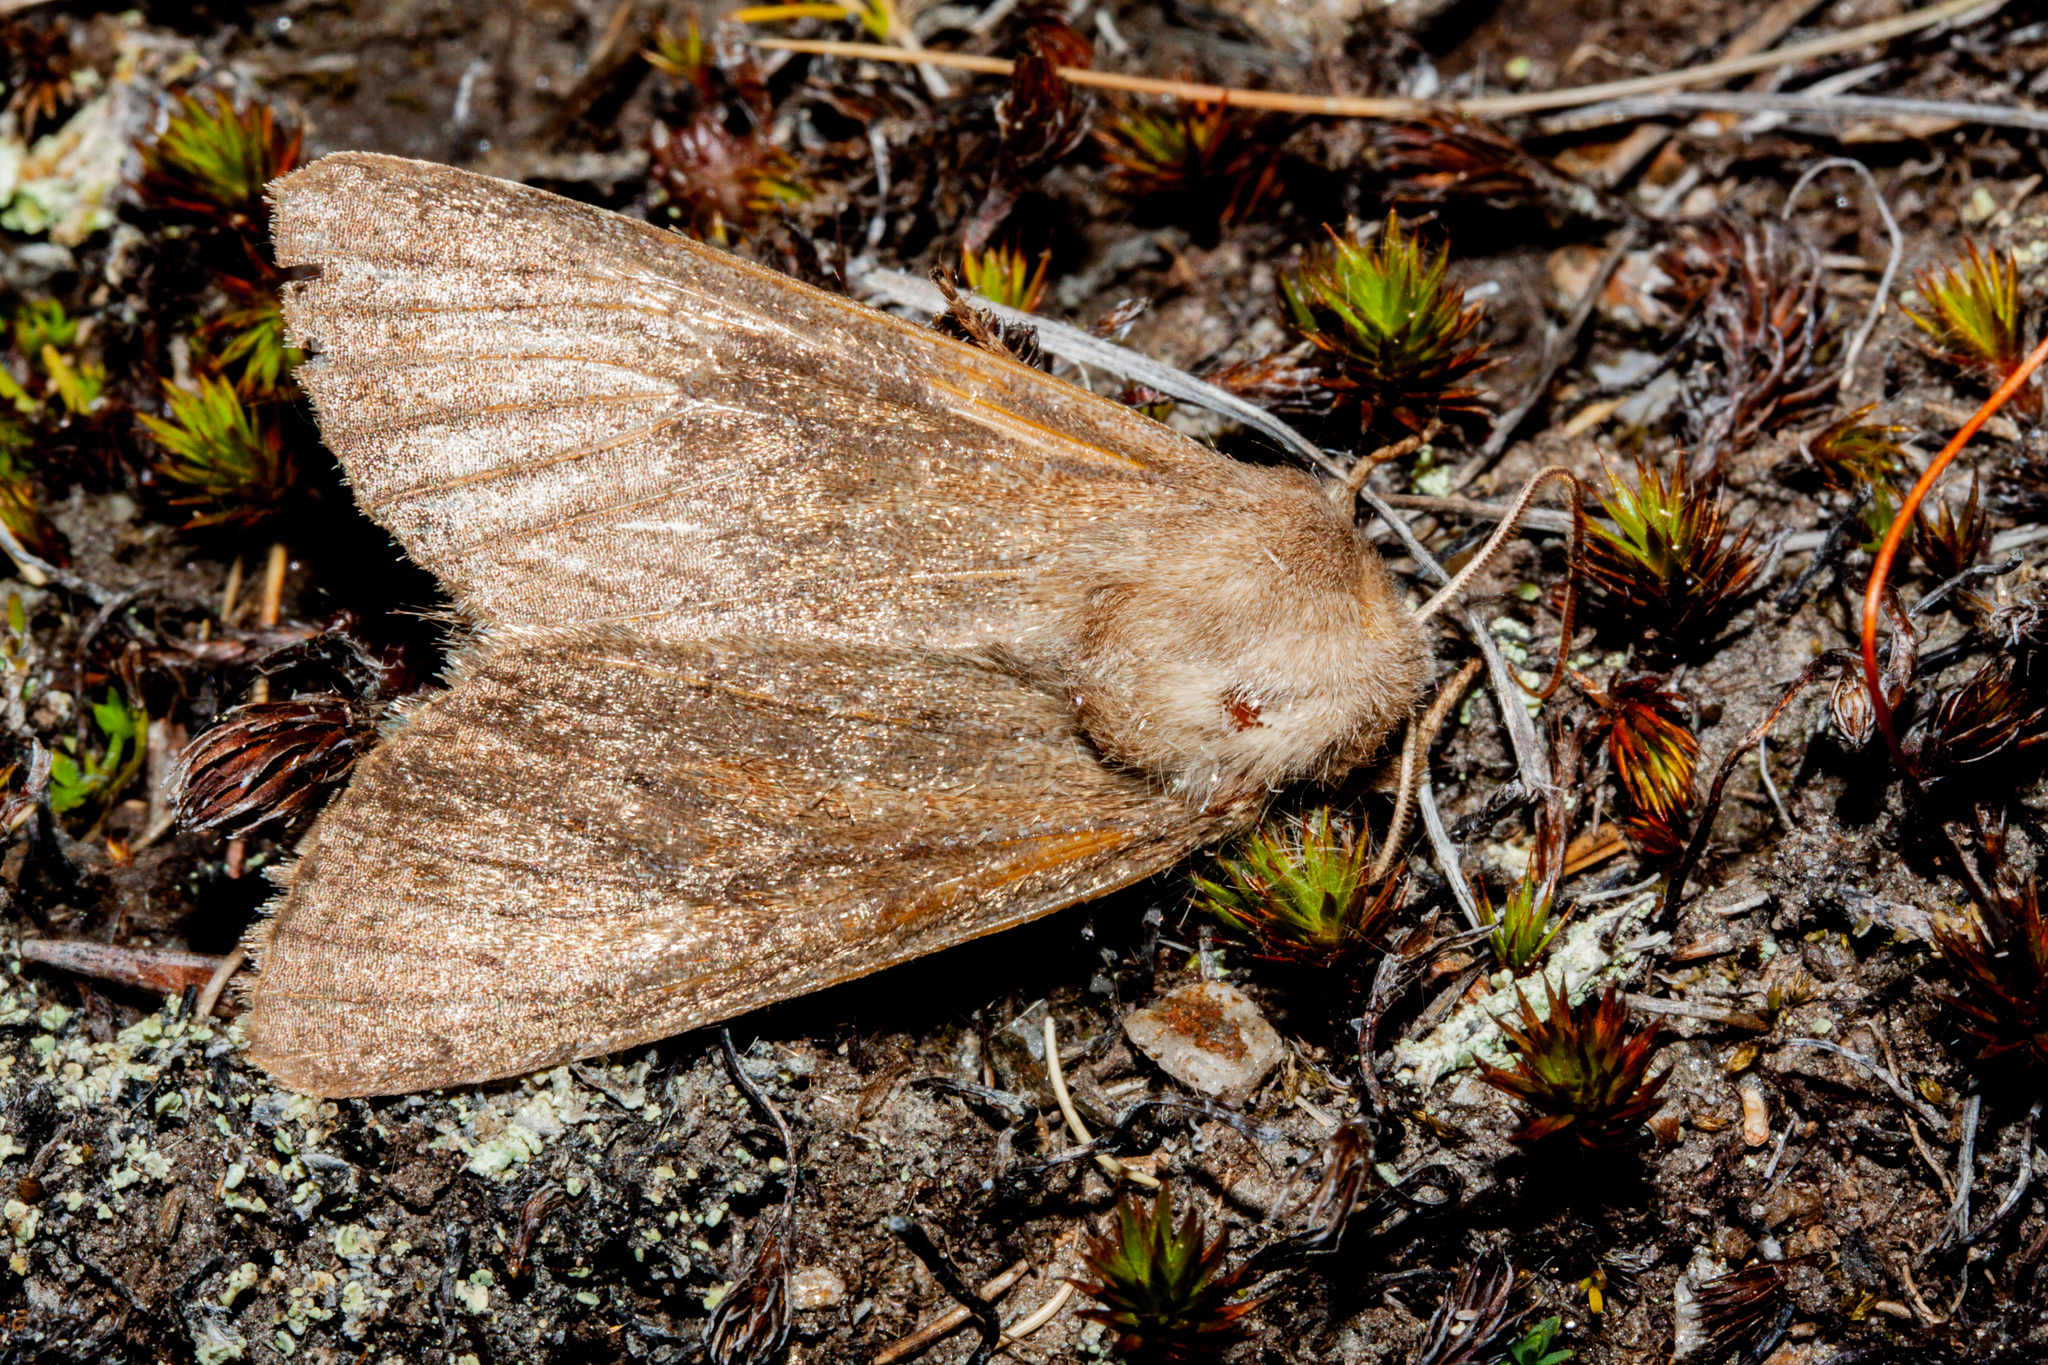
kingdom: Animalia
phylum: Arthropoda
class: Insecta
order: Lepidoptera
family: Noctuidae
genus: Ichneutica
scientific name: Ichneutica nullifera
